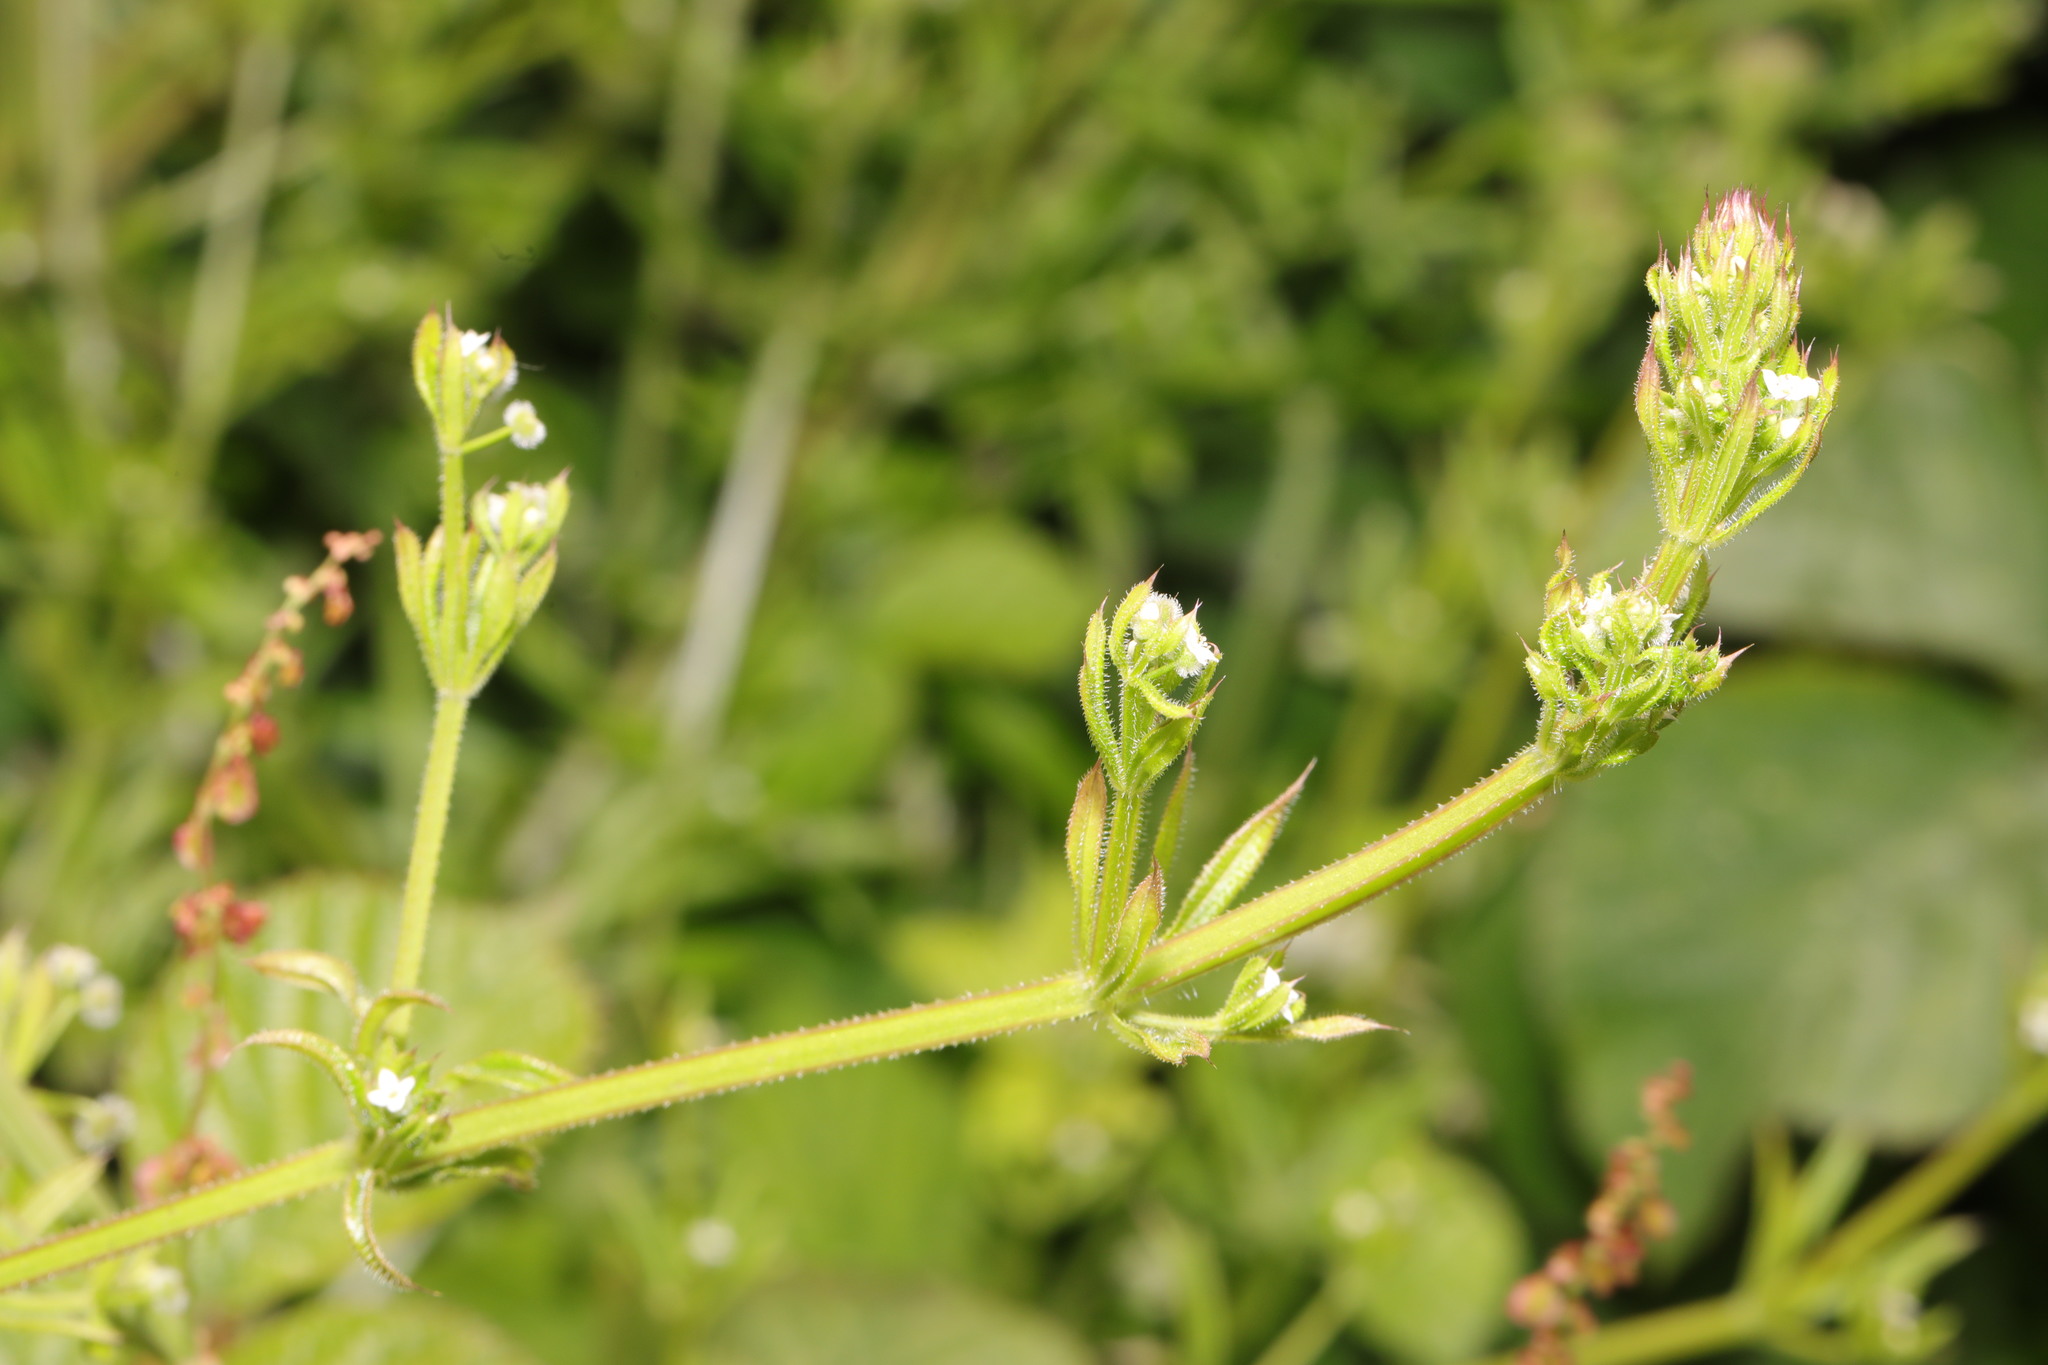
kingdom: Plantae
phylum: Tracheophyta
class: Magnoliopsida
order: Gentianales
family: Rubiaceae
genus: Galium
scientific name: Galium aparine
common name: Cleavers
